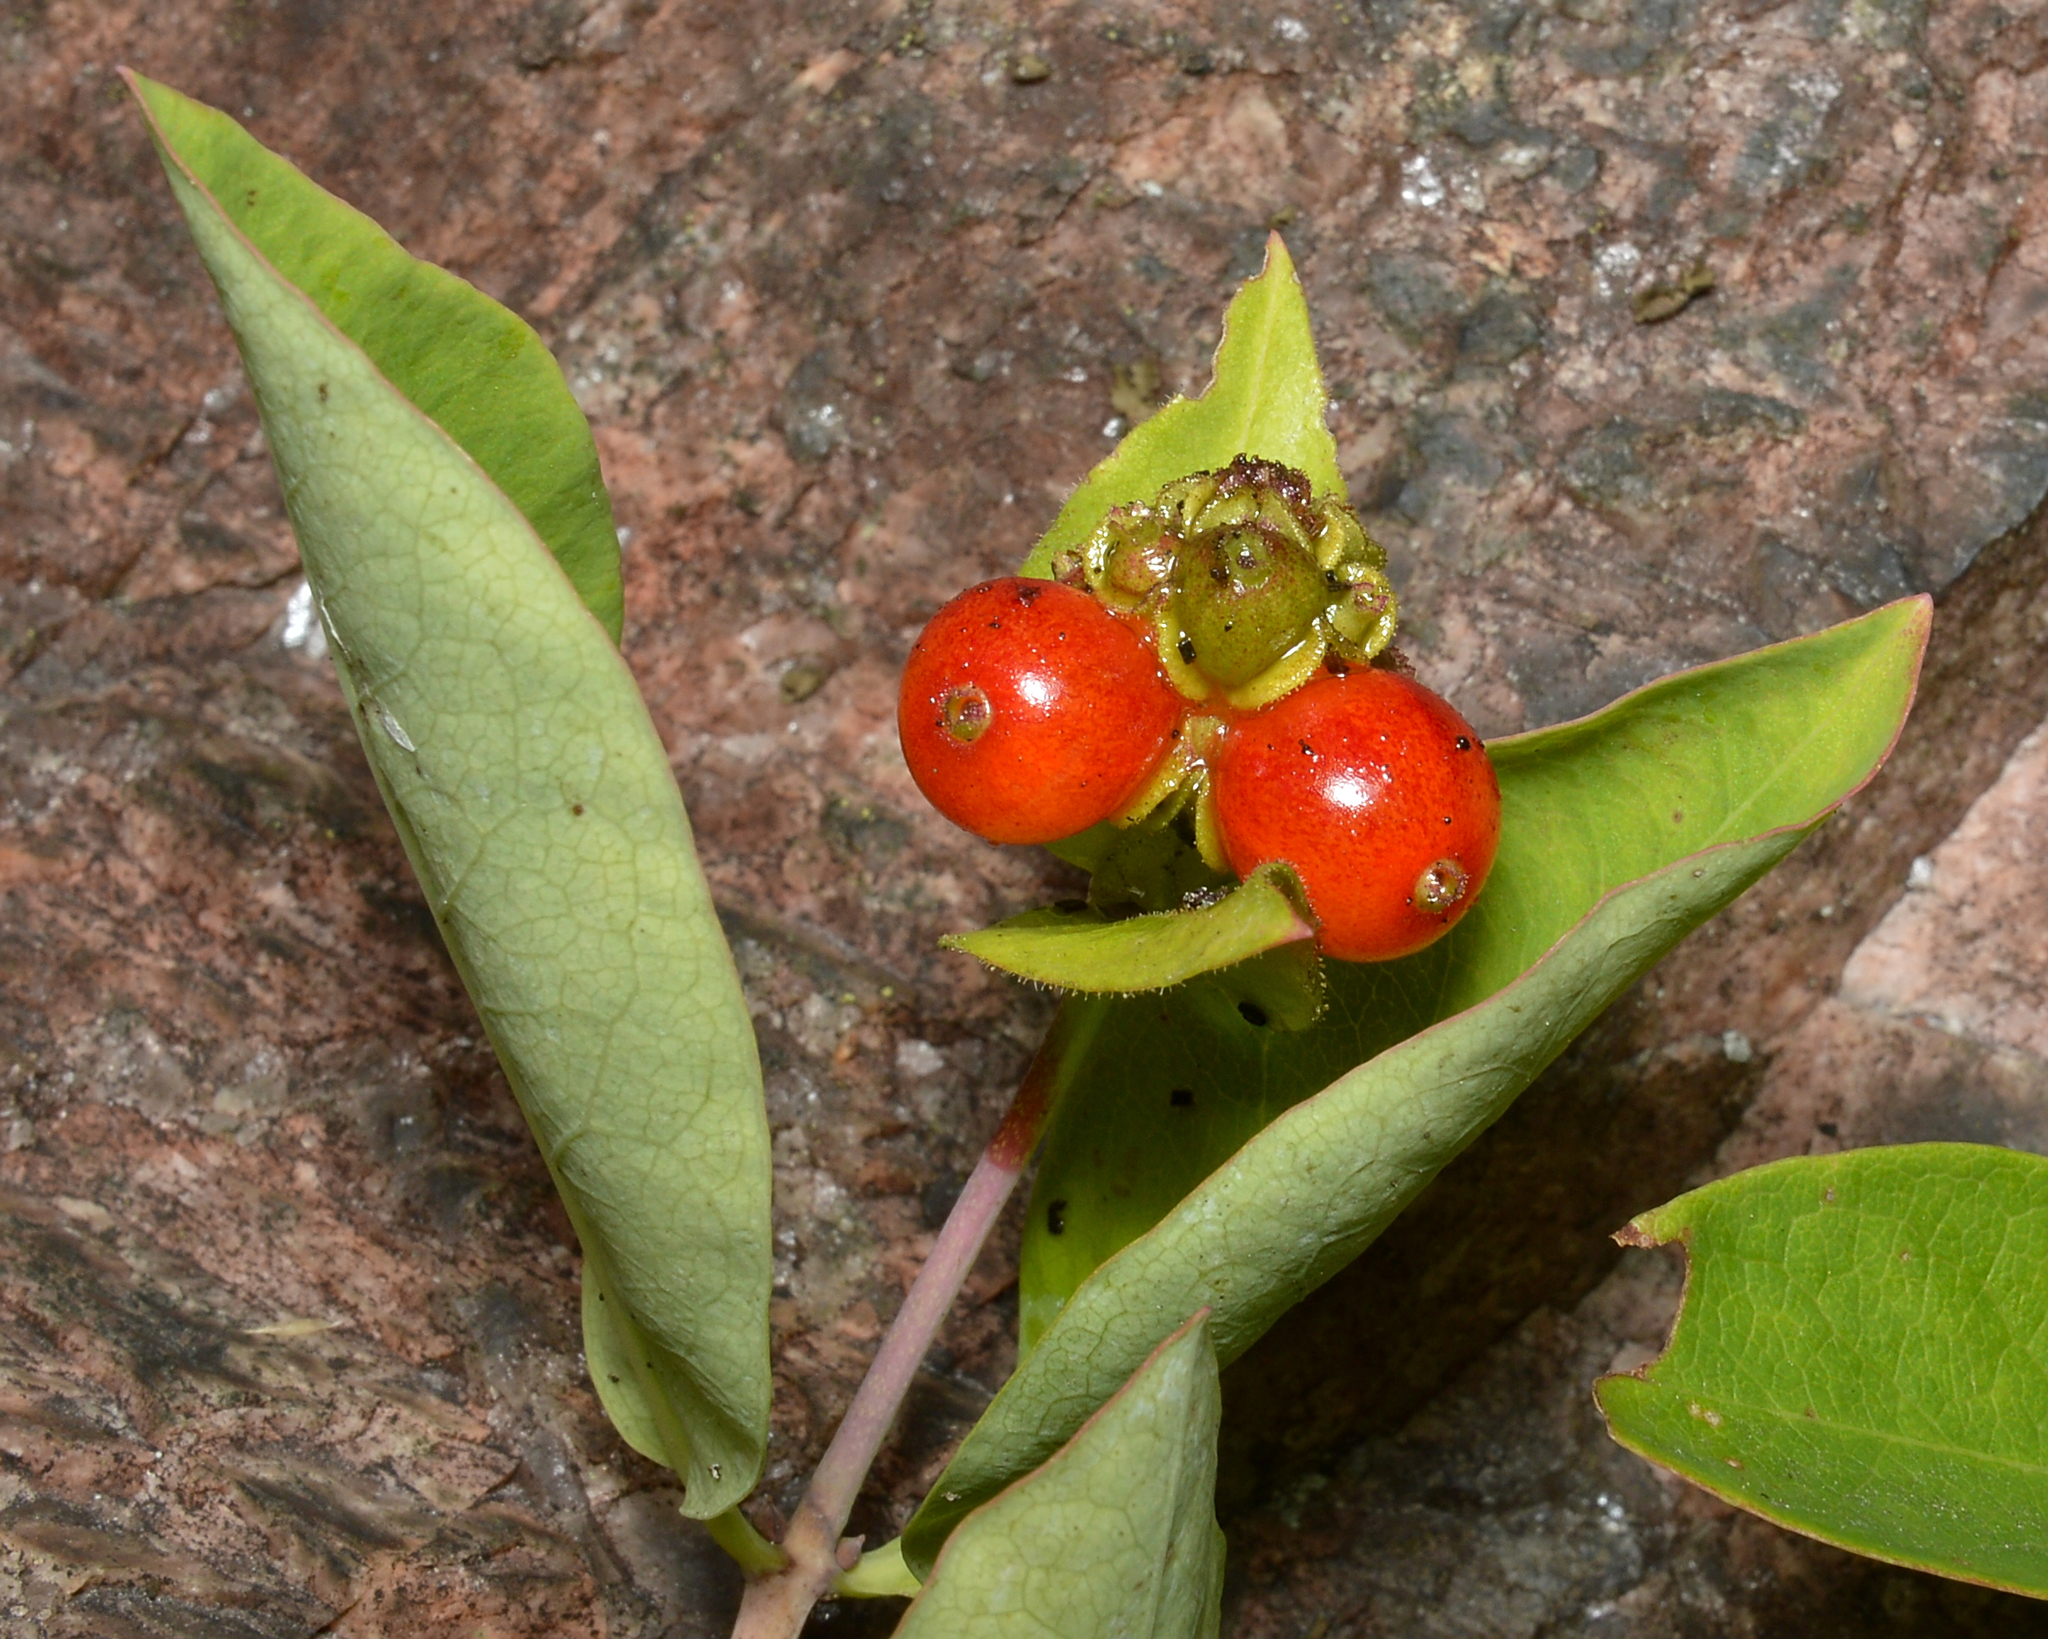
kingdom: Plantae
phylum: Tracheophyta
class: Magnoliopsida
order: Dipsacales
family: Caprifoliaceae
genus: Lonicera
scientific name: Lonicera periclymenum
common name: European honeysuckle
